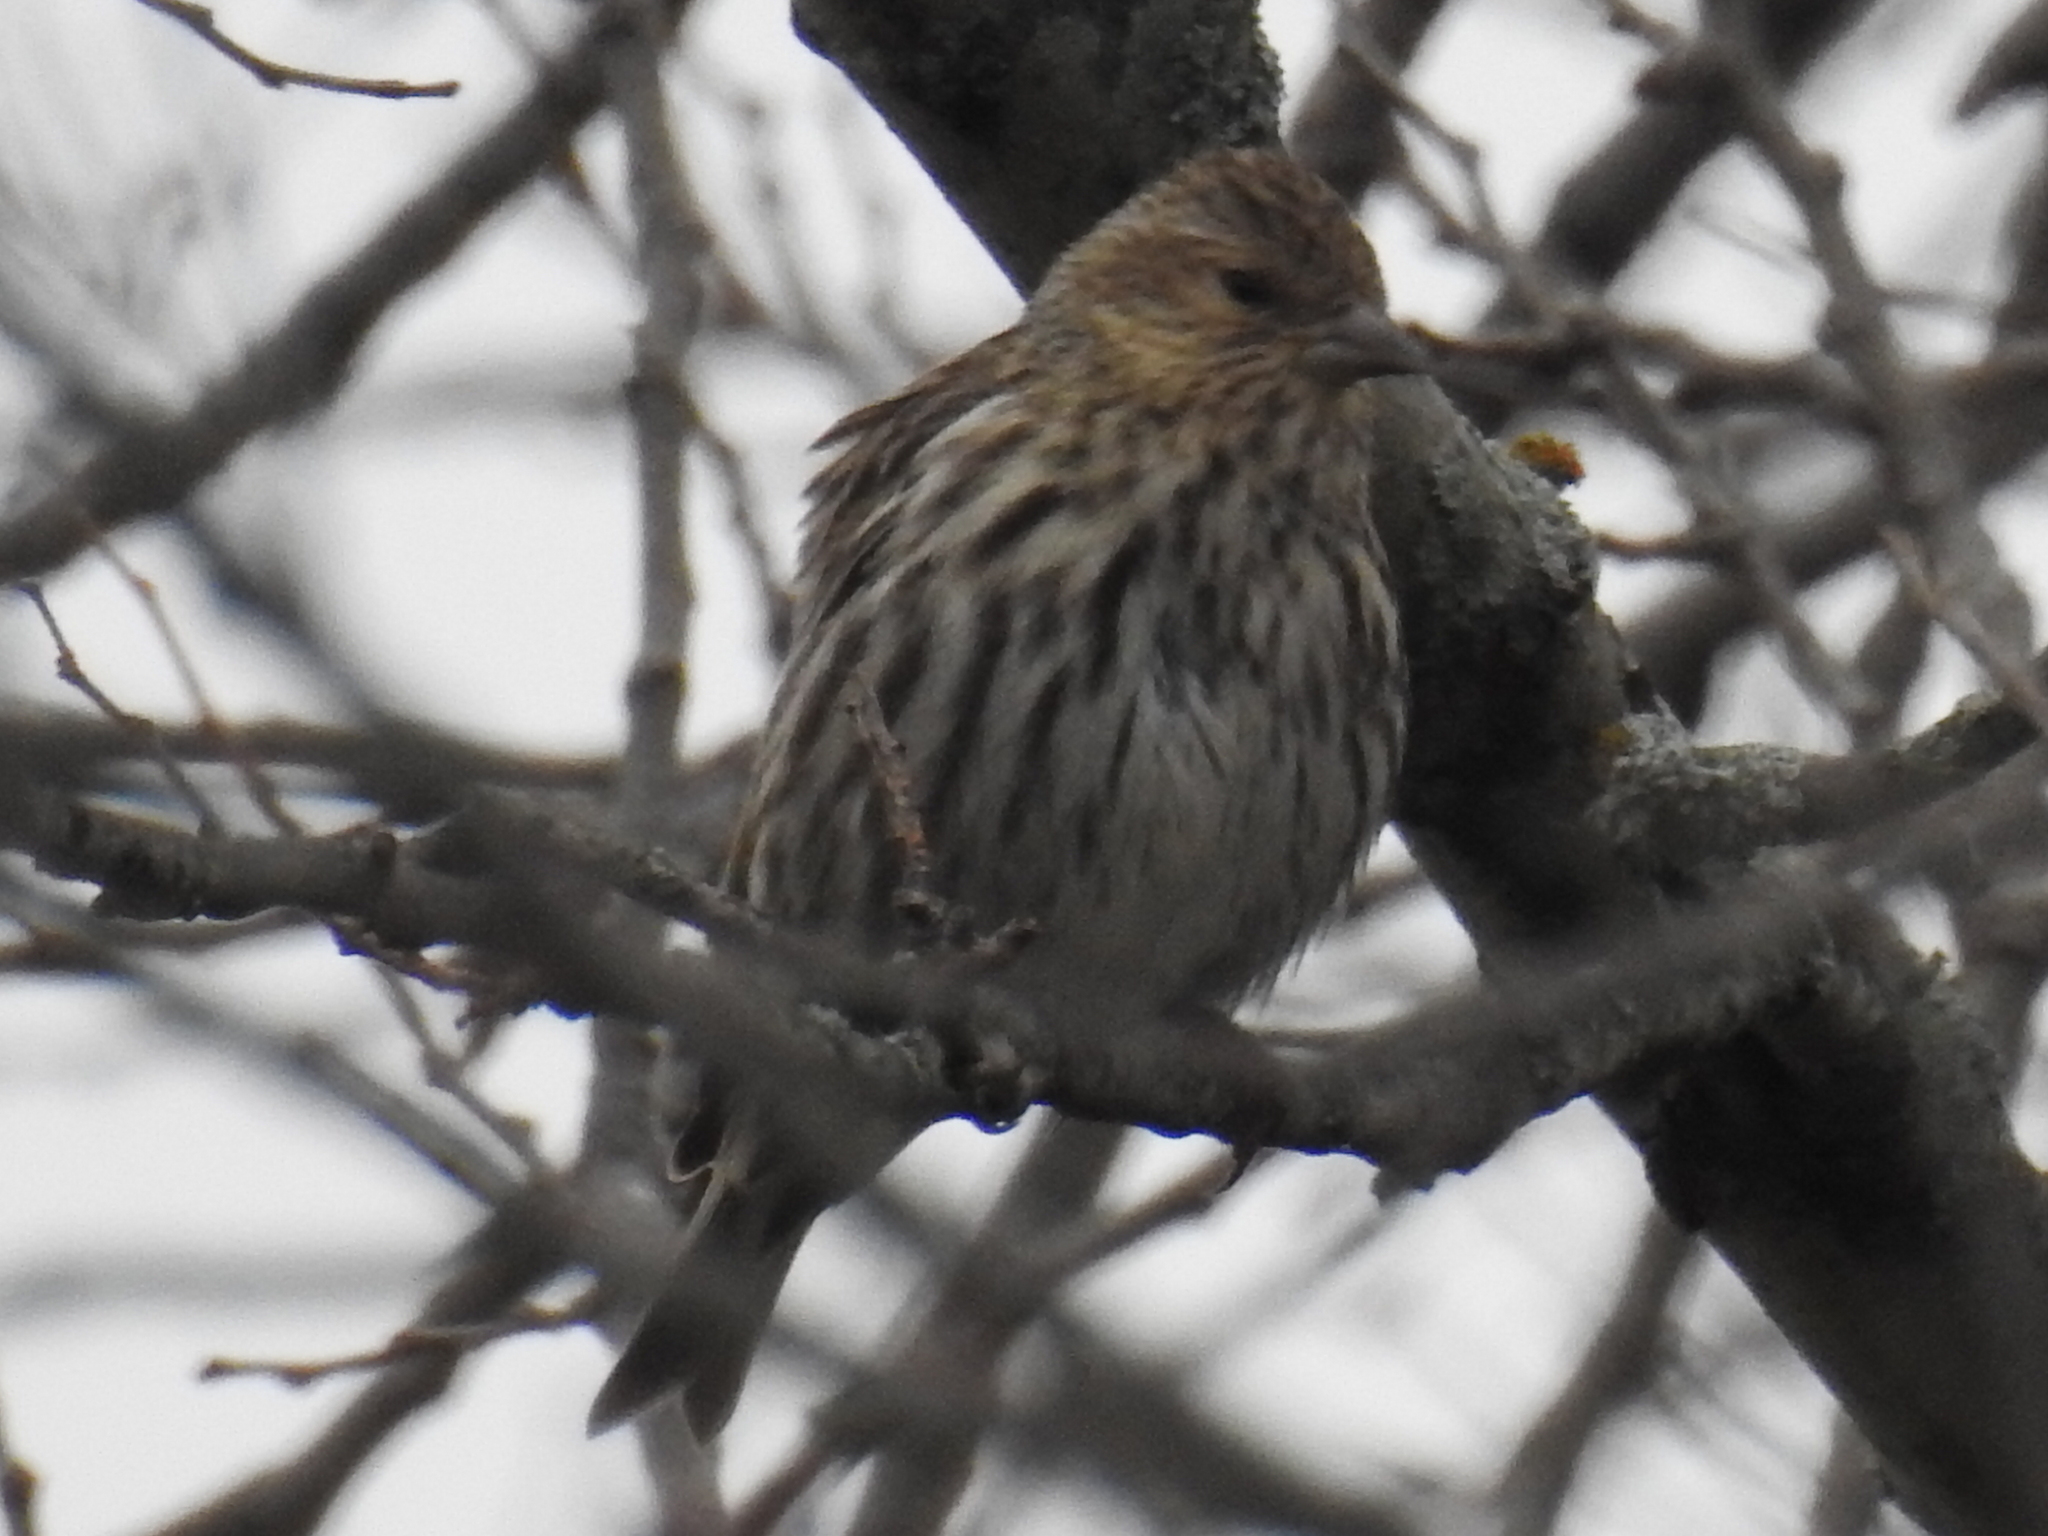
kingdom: Animalia
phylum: Chordata
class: Aves
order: Passeriformes
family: Fringillidae
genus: Spinus
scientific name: Spinus pinus
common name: Pine siskin
